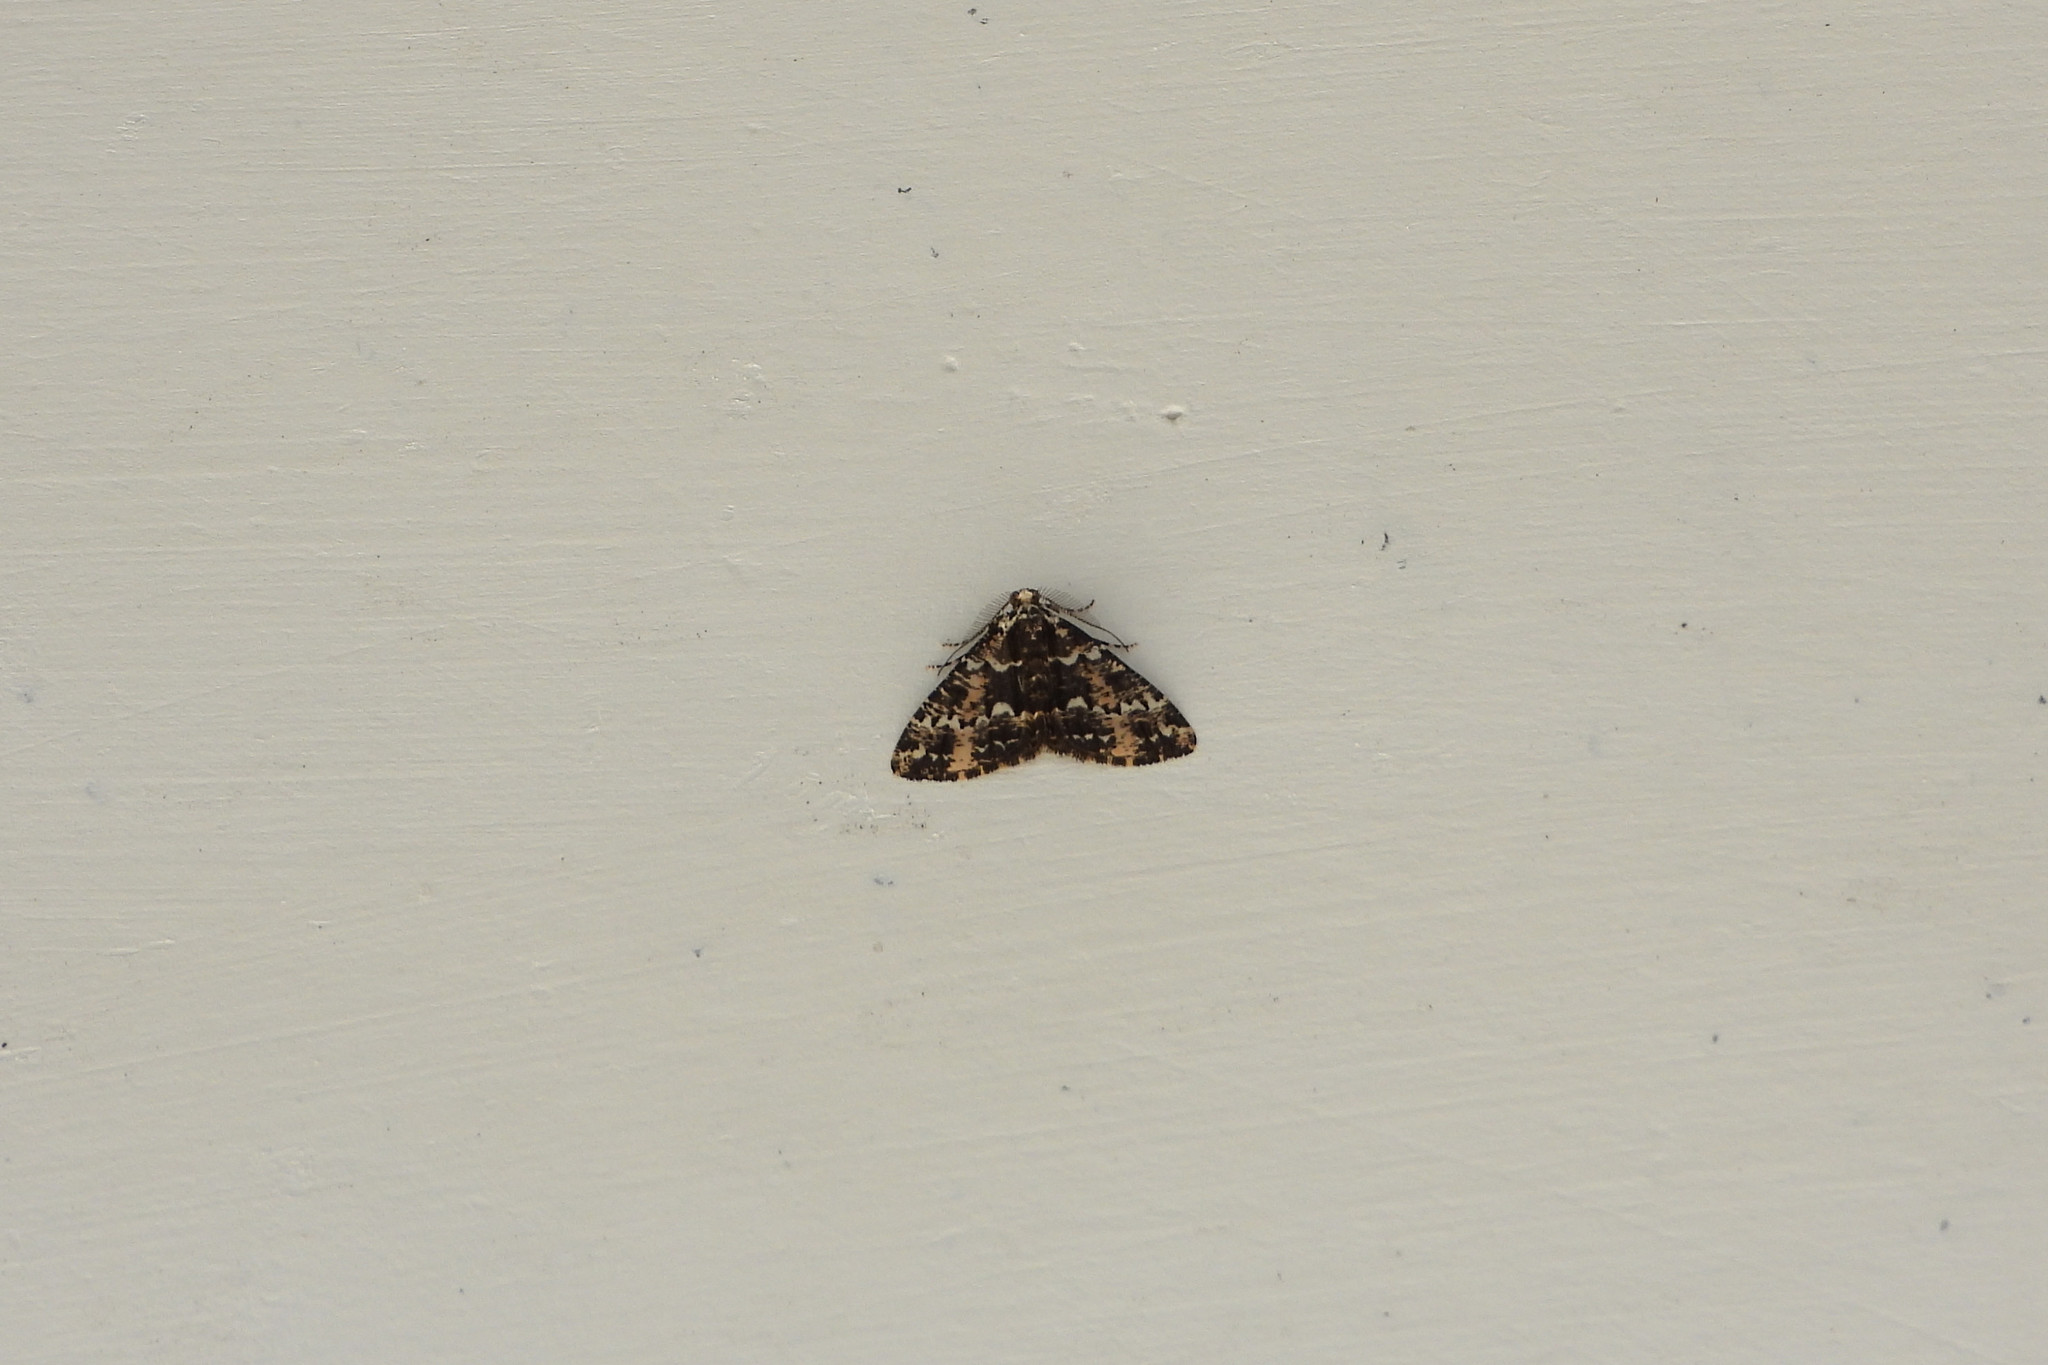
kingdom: Animalia
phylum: Arthropoda
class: Insecta
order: Lepidoptera
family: Geometridae
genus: Prochasma
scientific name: Prochasma mimica
